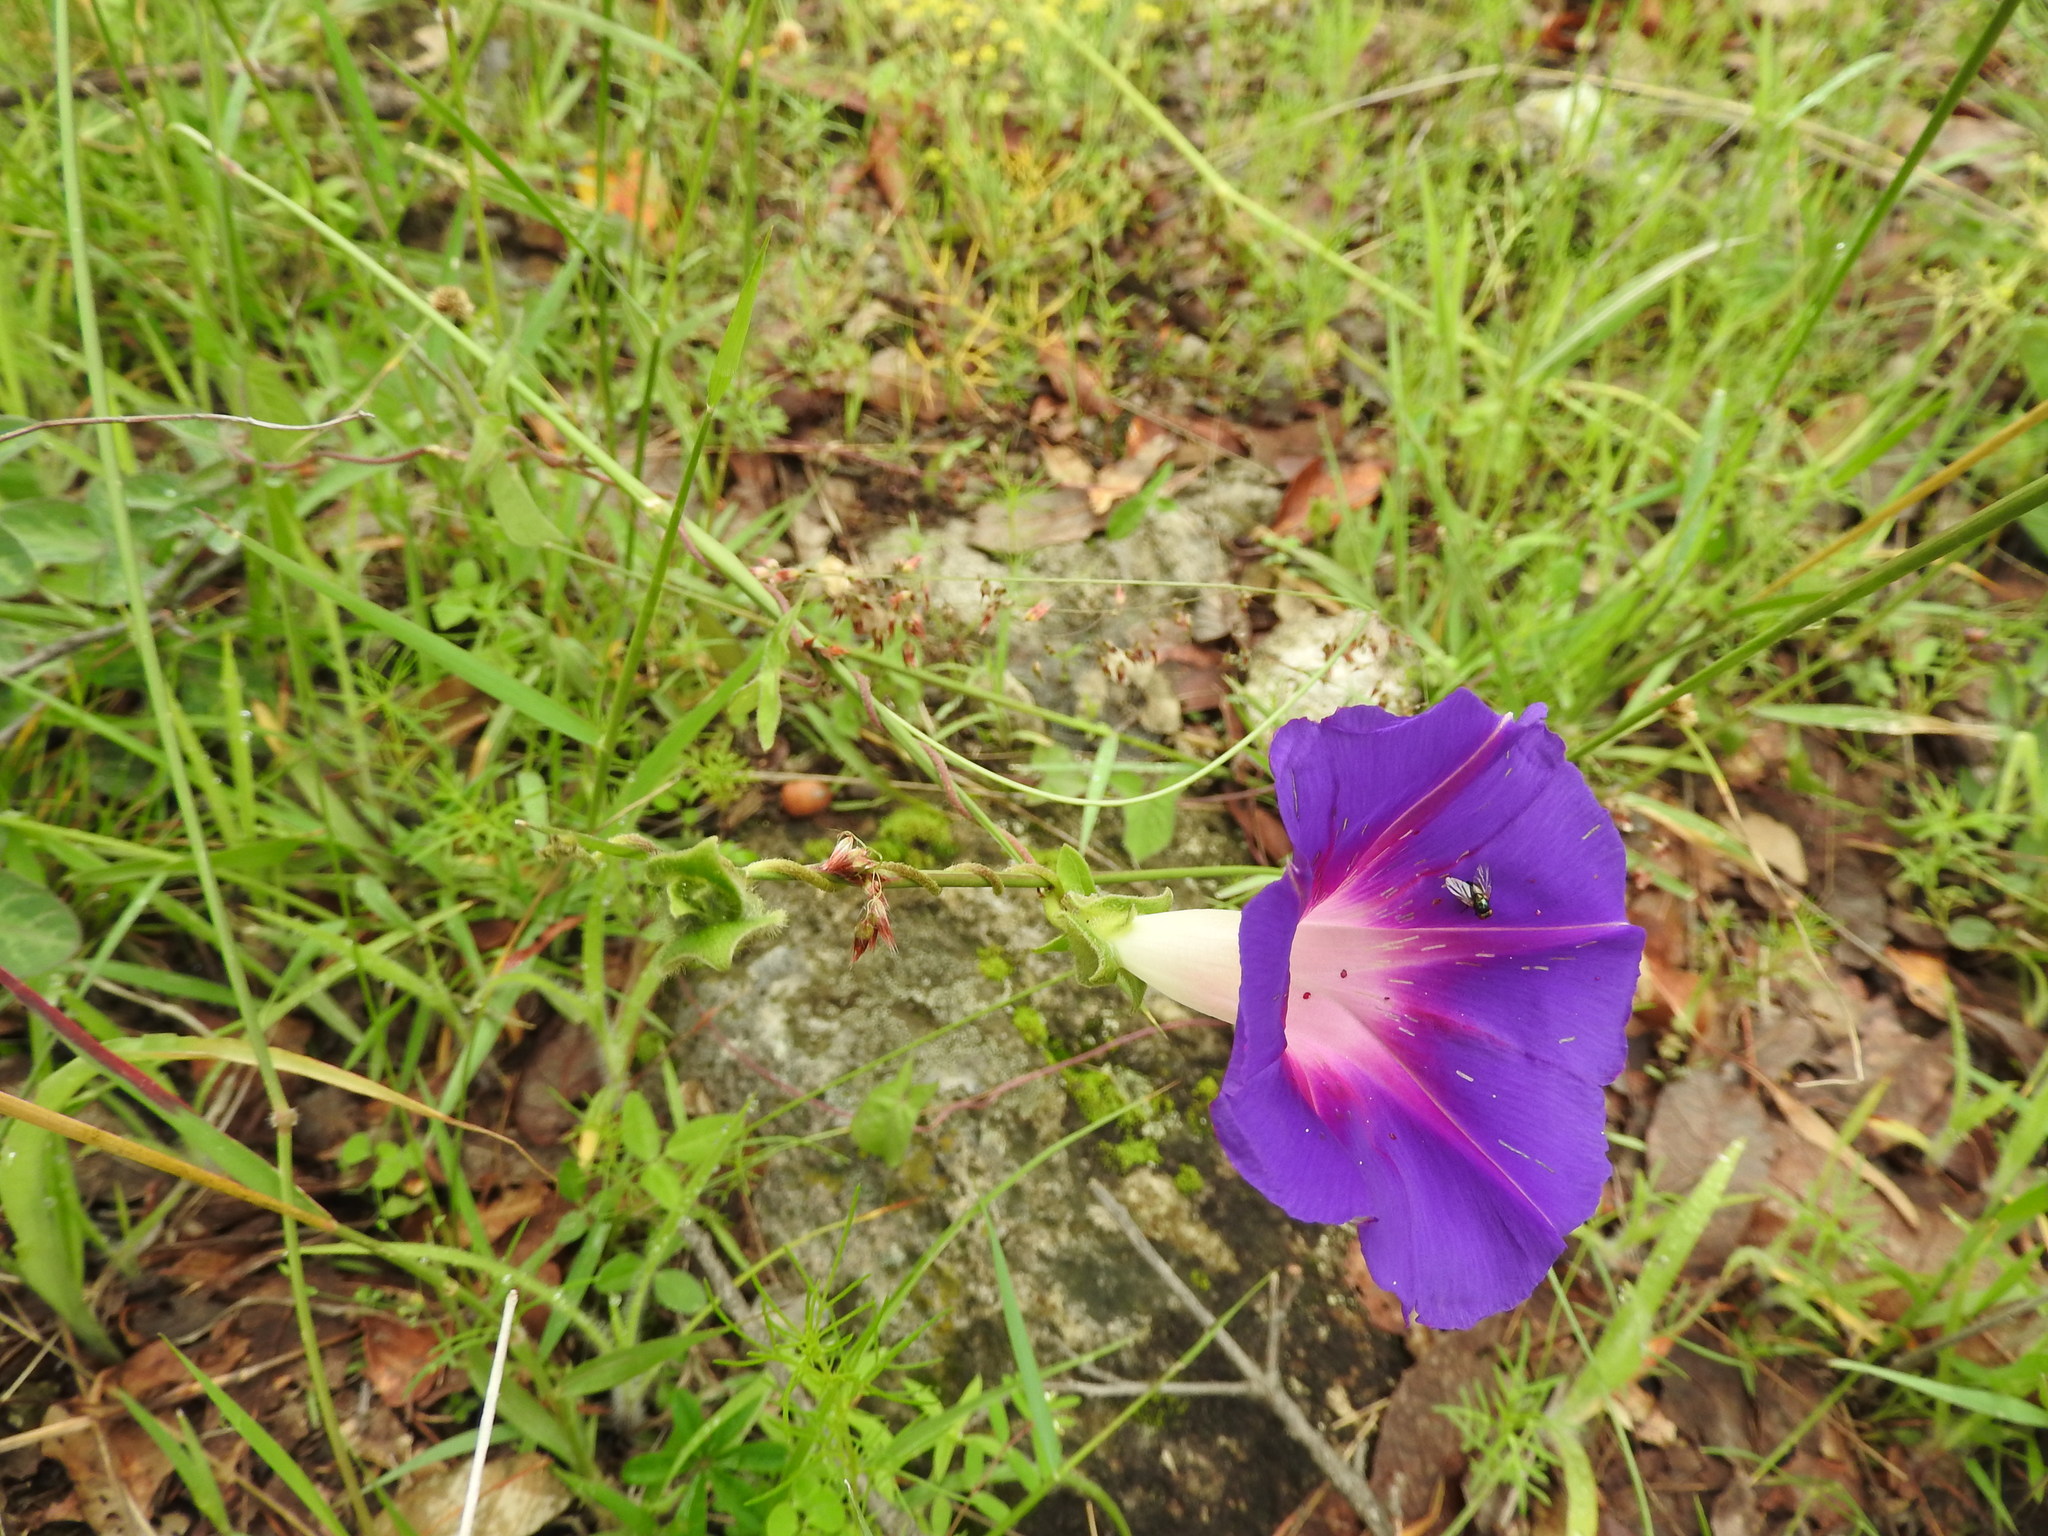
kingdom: Plantae
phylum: Tracheophyta
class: Magnoliopsida
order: Solanales
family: Convolvulaceae
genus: Ipomoea
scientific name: Ipomoea decasperma
